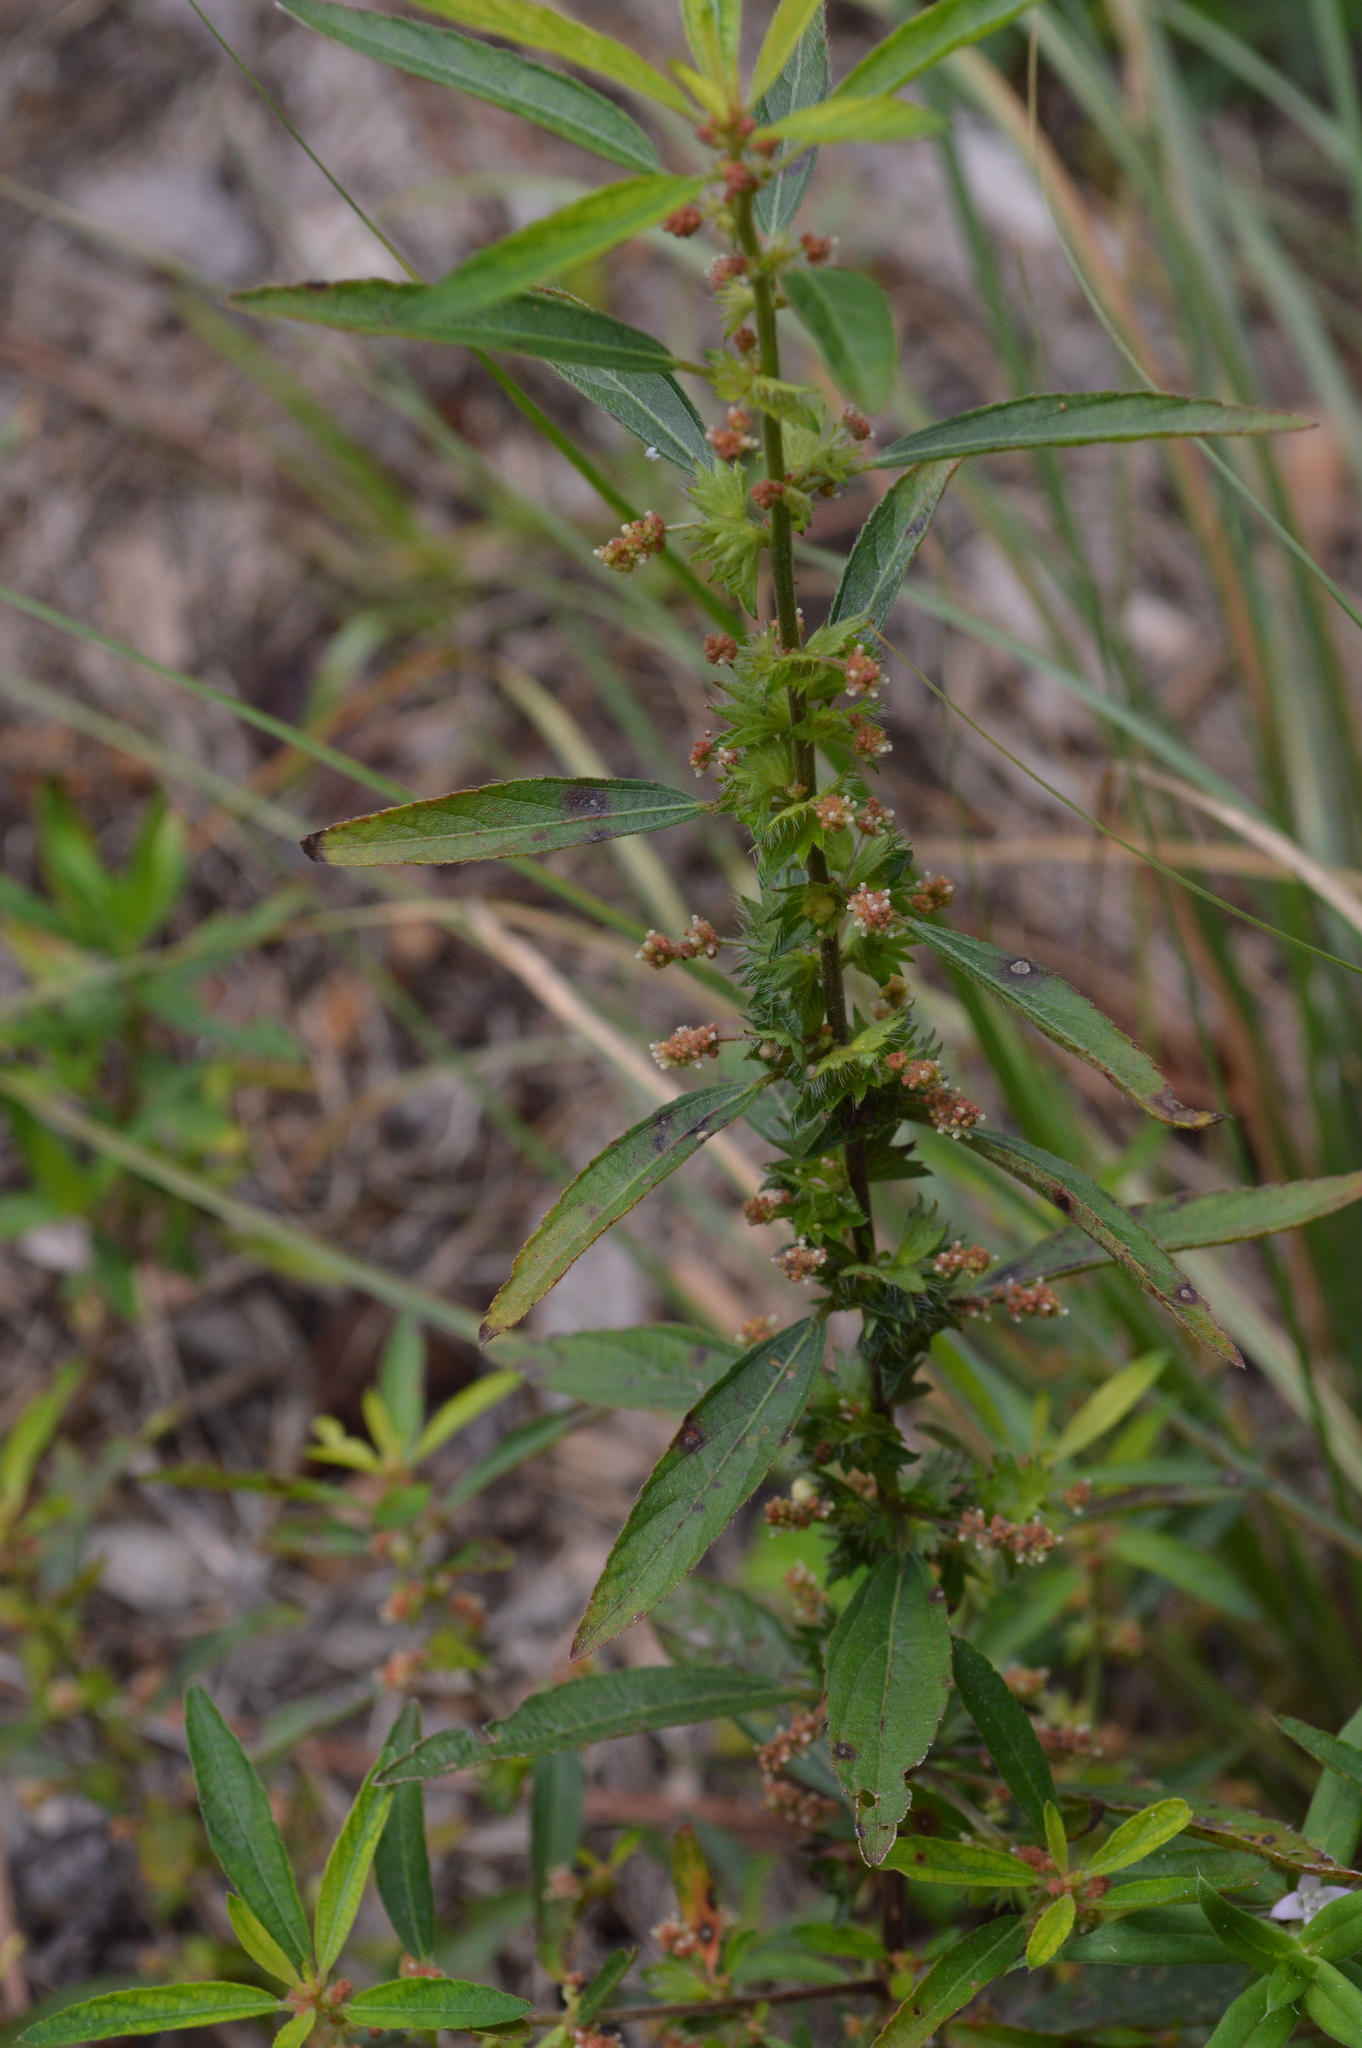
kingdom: Plantae
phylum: Tracheophyta
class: Magnoliopsida
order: Malpighiales
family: Euphorbiaceae
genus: Acalypha
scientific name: Acalypha gracilens
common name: Slender three-seeded mercury
